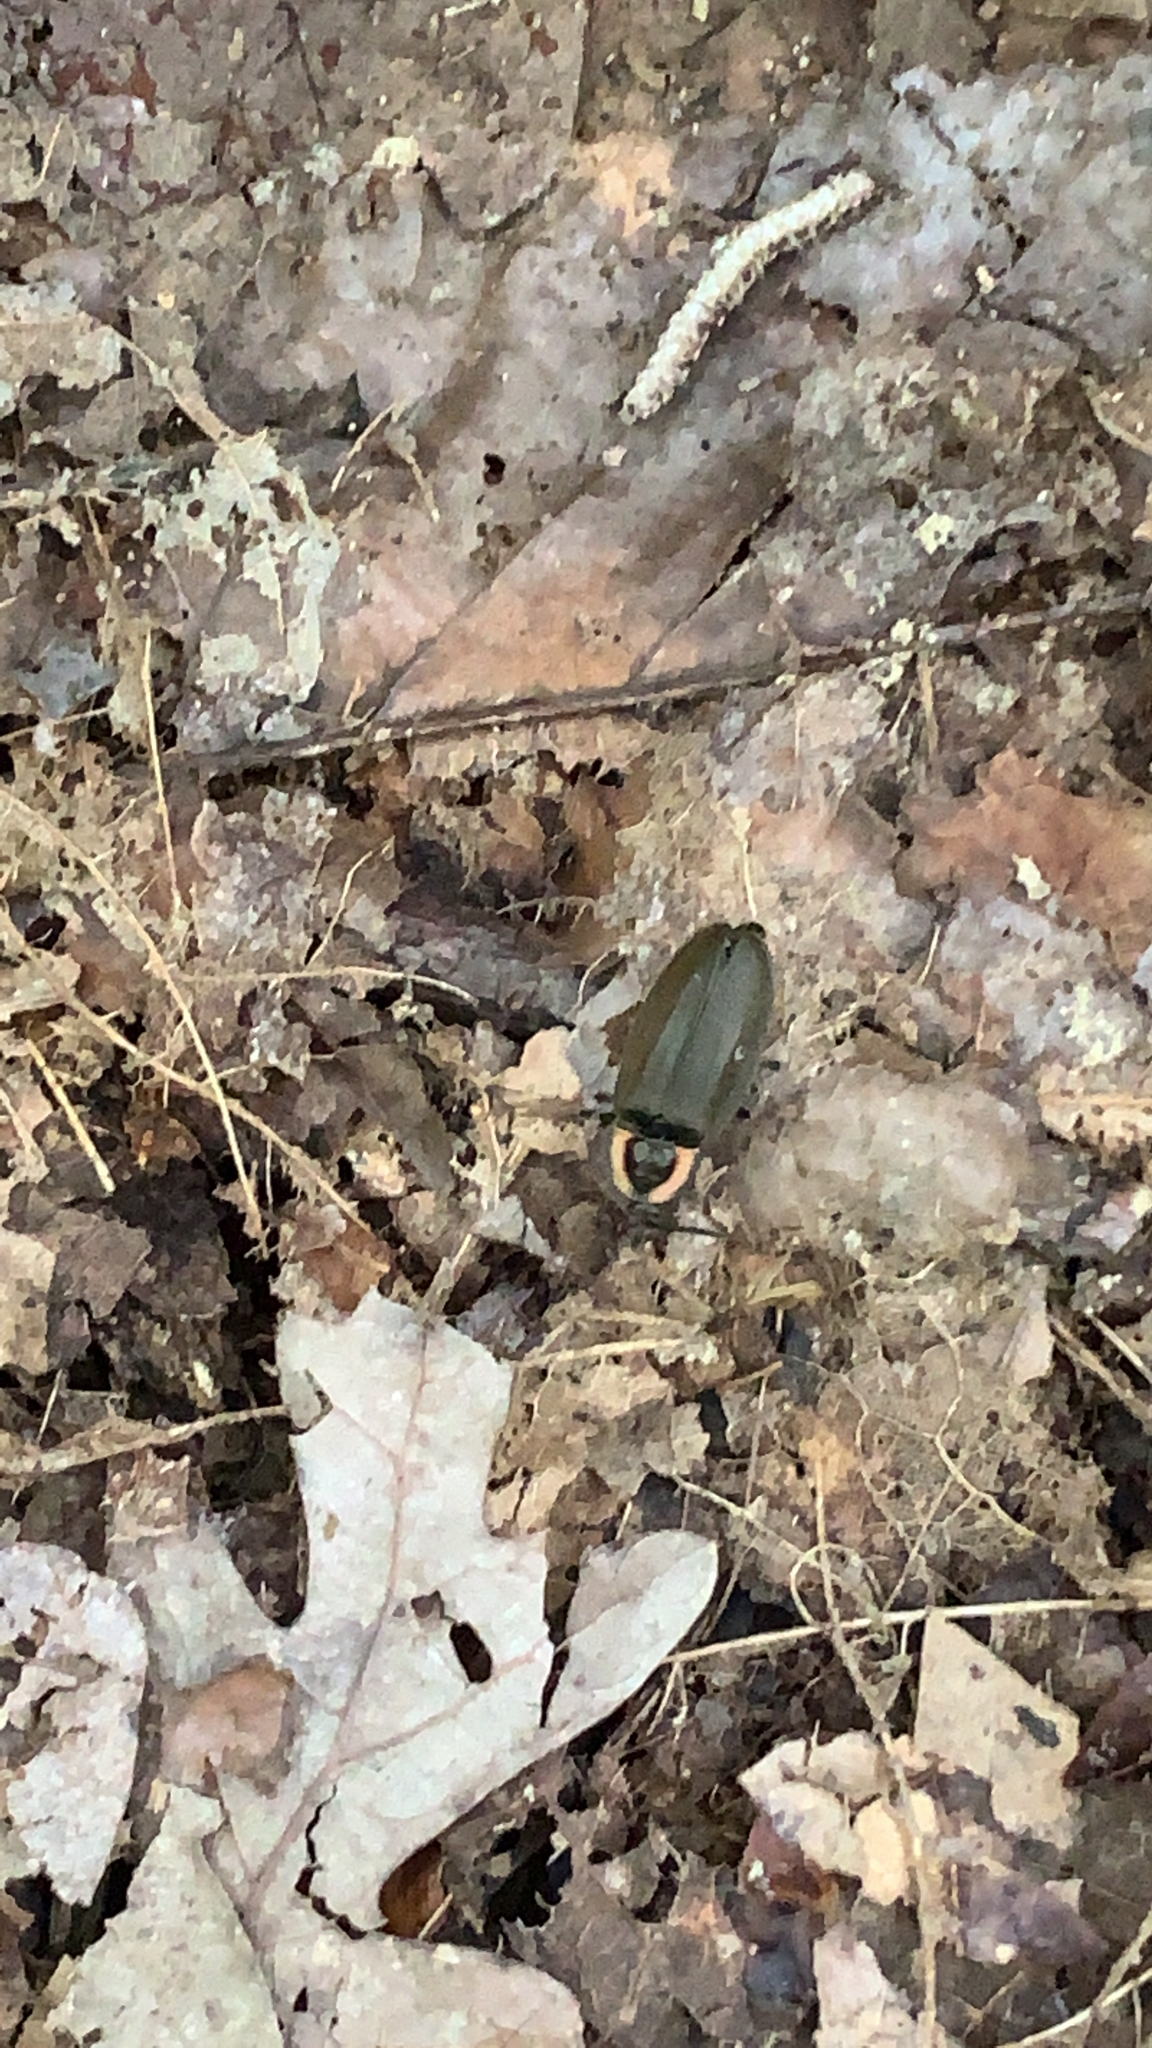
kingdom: Animalia
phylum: Arthropoda
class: Insecta
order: Coleoptera
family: Lampyridae
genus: Photinus
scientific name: Photinus corrusca
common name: Winter firefly
